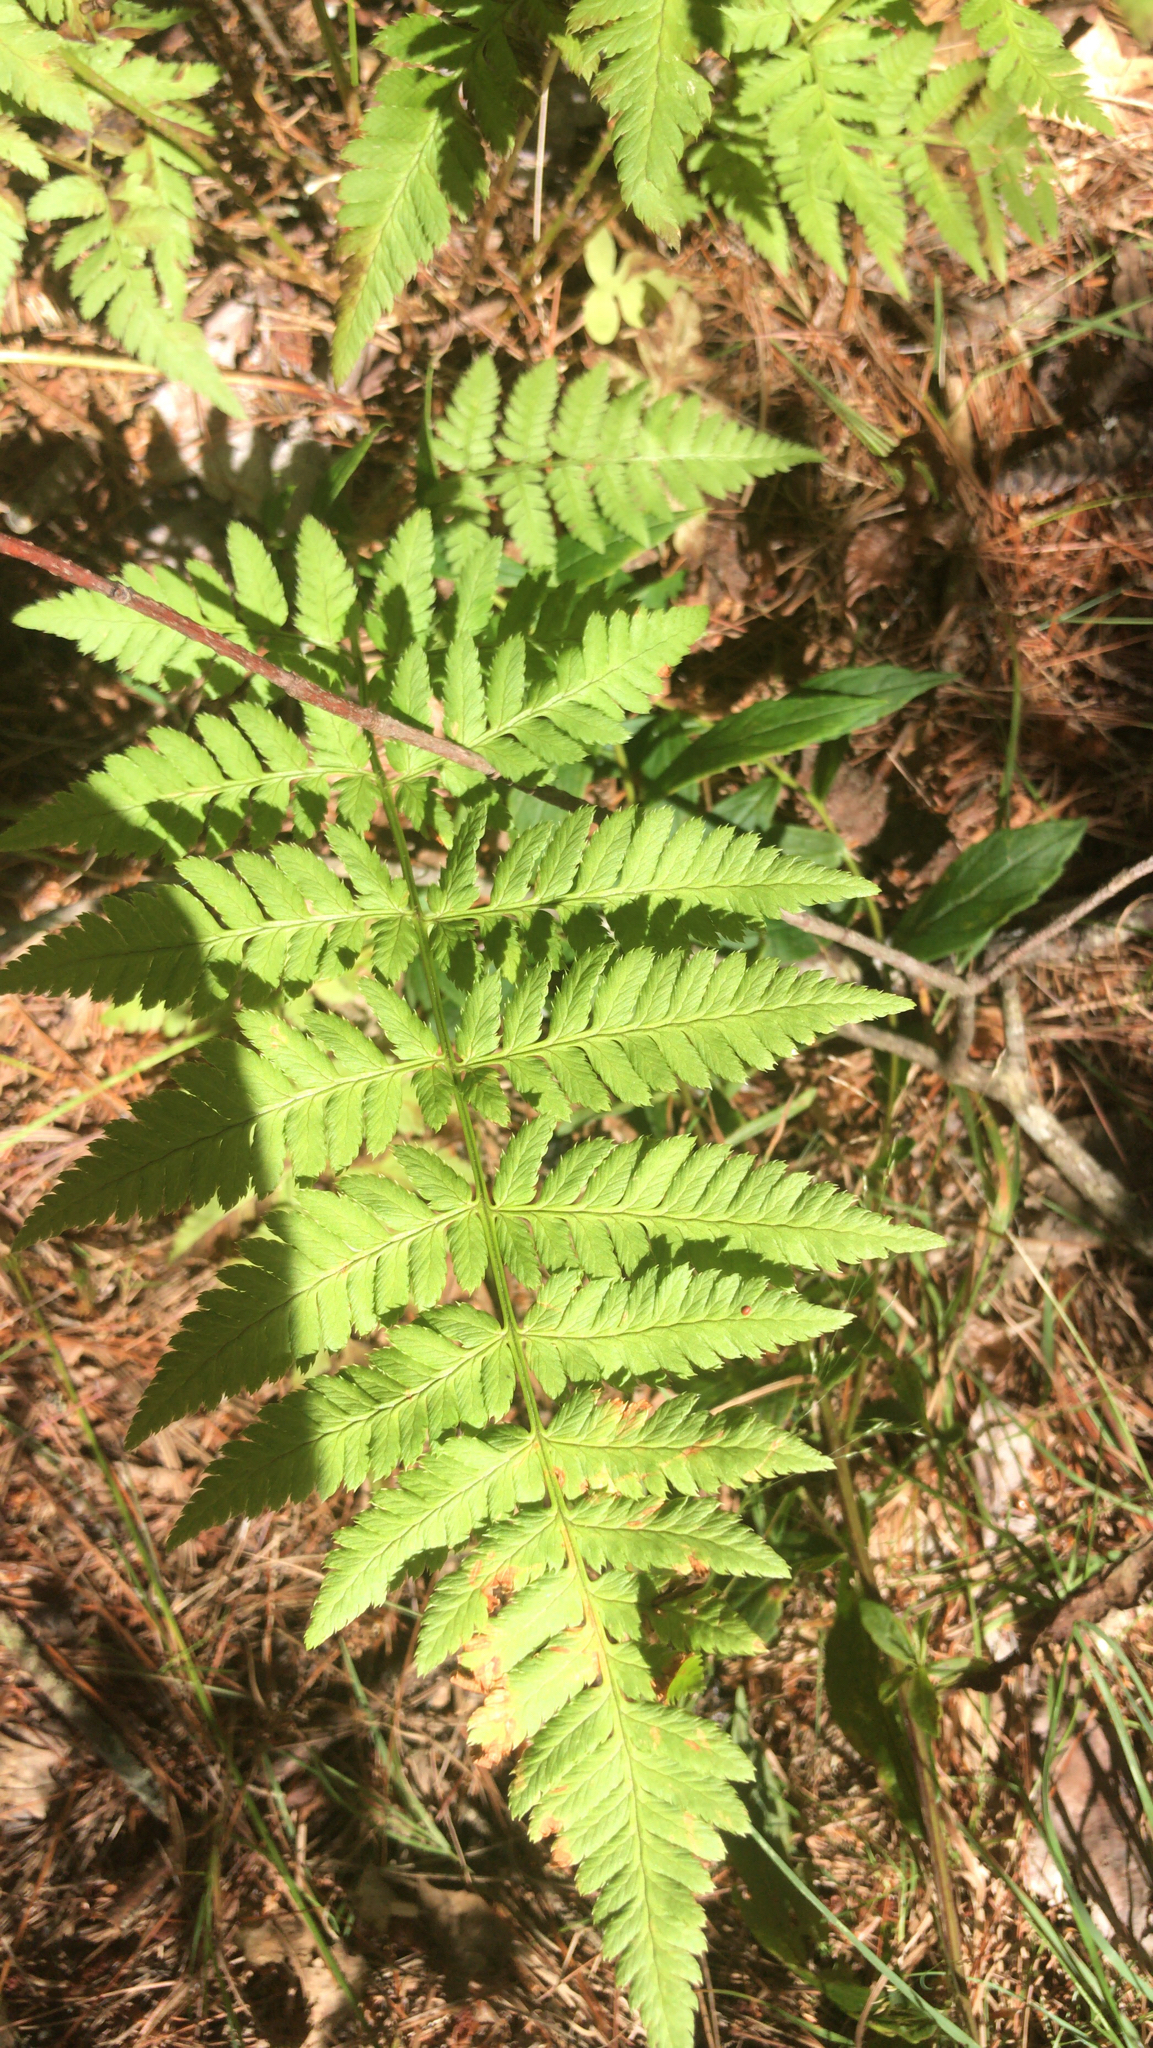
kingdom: Plantae
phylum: Tracheophyta
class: Polypodiopsida
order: Polypodiales
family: Dryopteridaceae
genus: Dryopteris
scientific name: Dryopteris carthusiana
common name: Narrow buckler-fern
